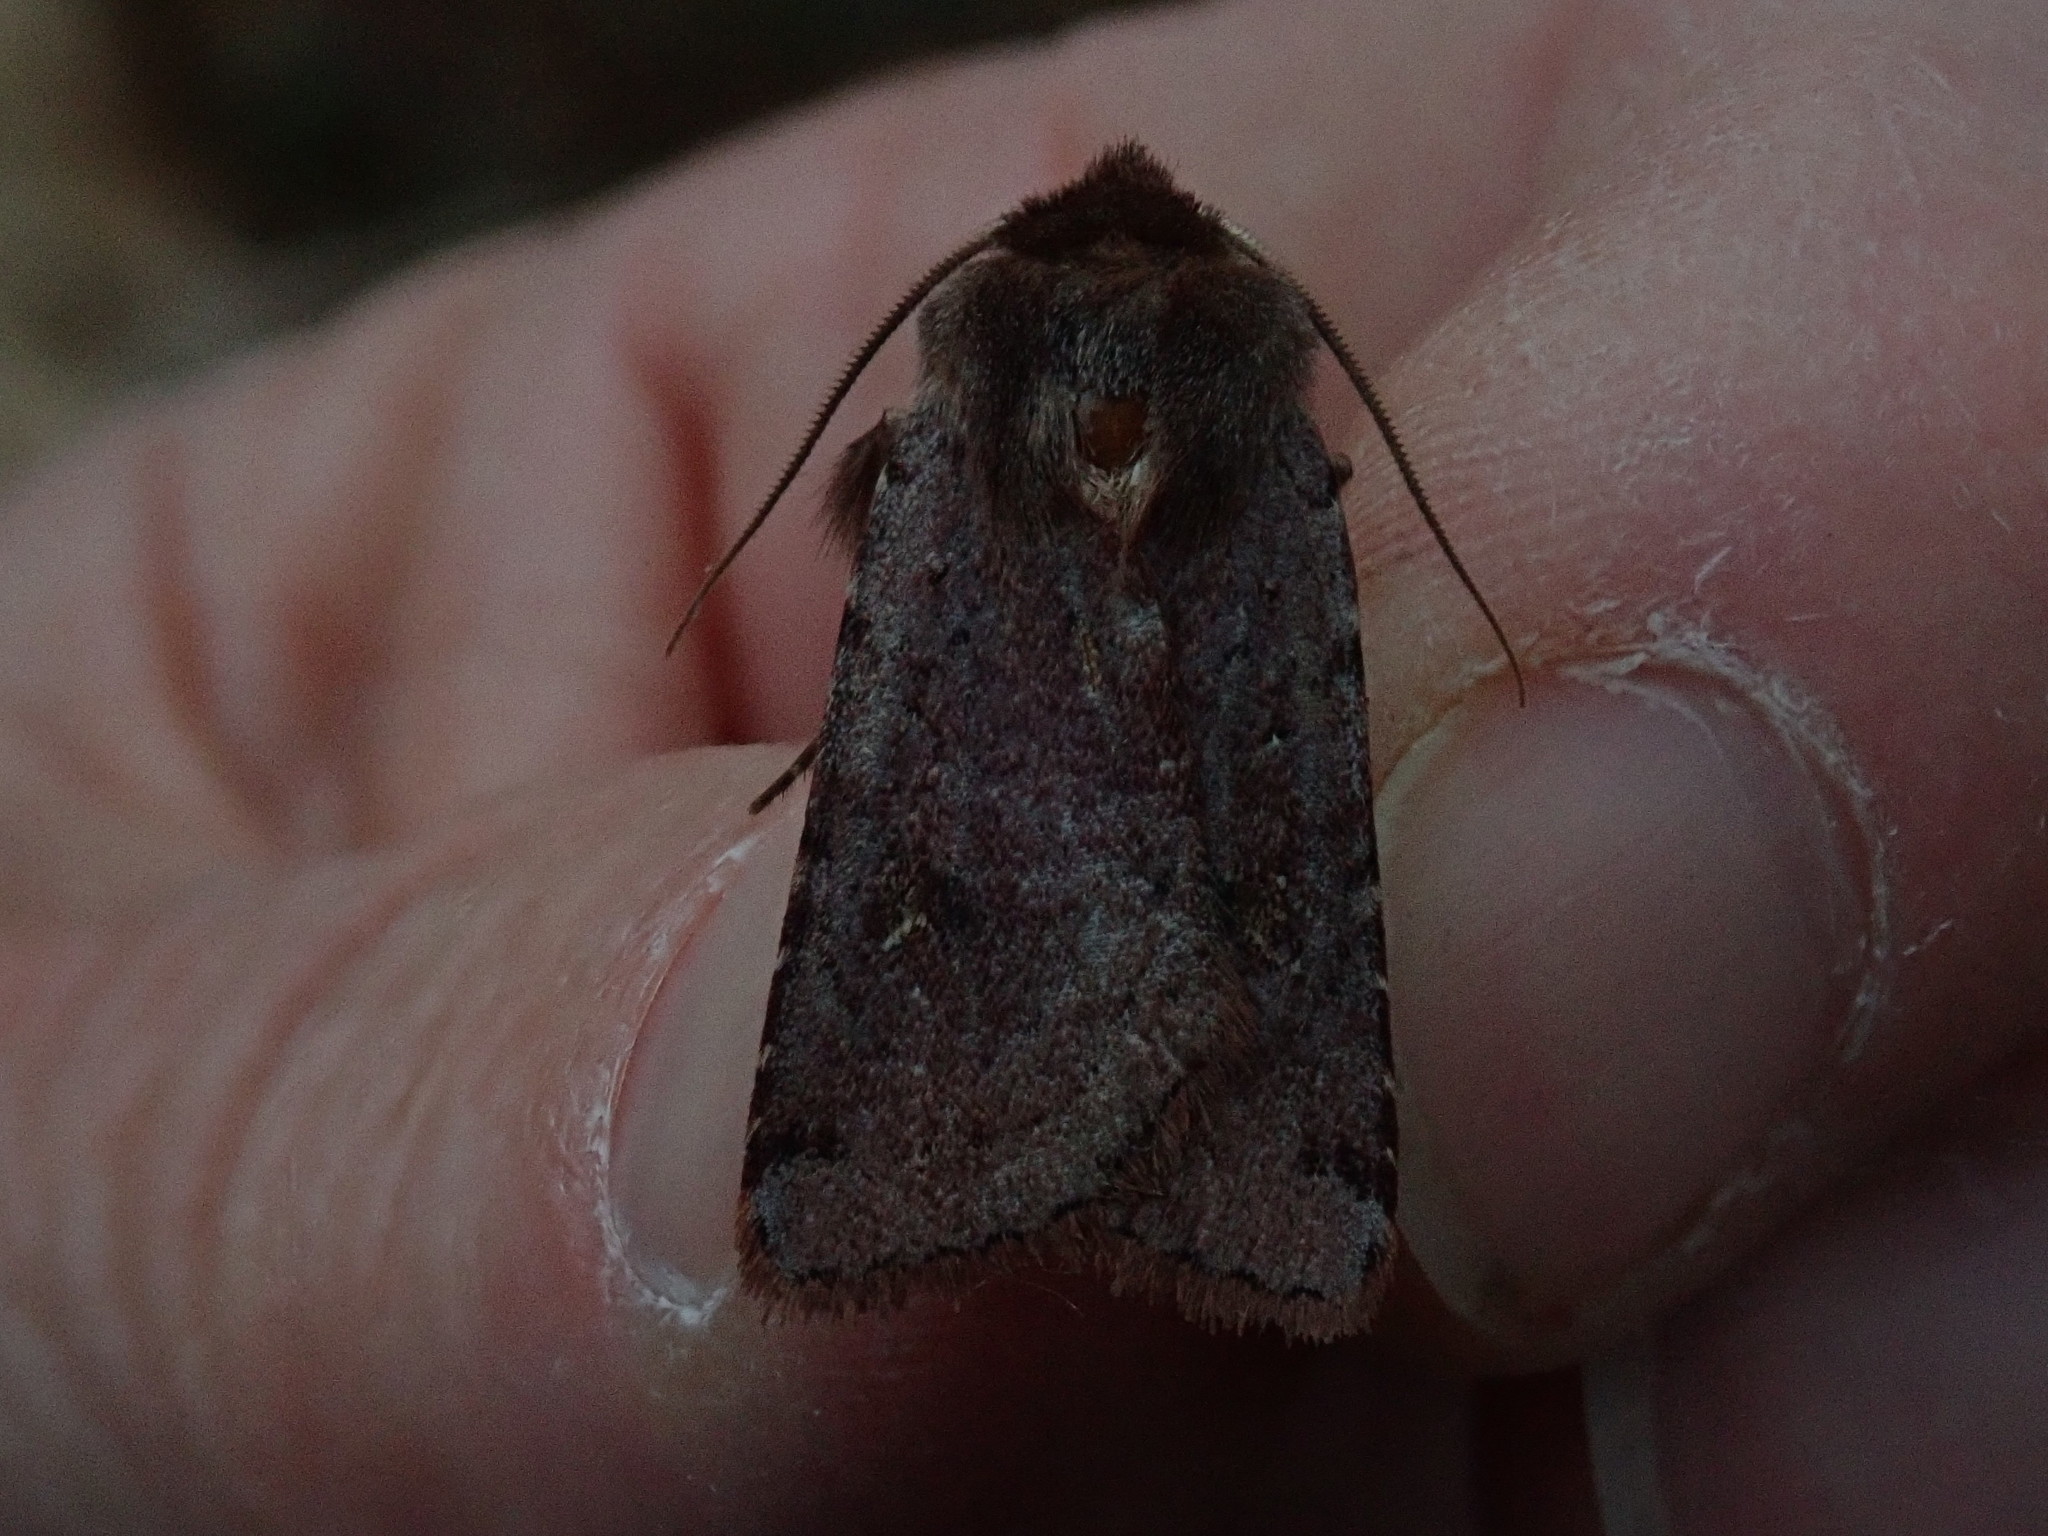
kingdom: Animalia
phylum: Arthropoda
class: Insecta
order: Lepidoptera
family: Noctuidae
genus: Cerastis
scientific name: Cerastis fishii
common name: Fish's dart
